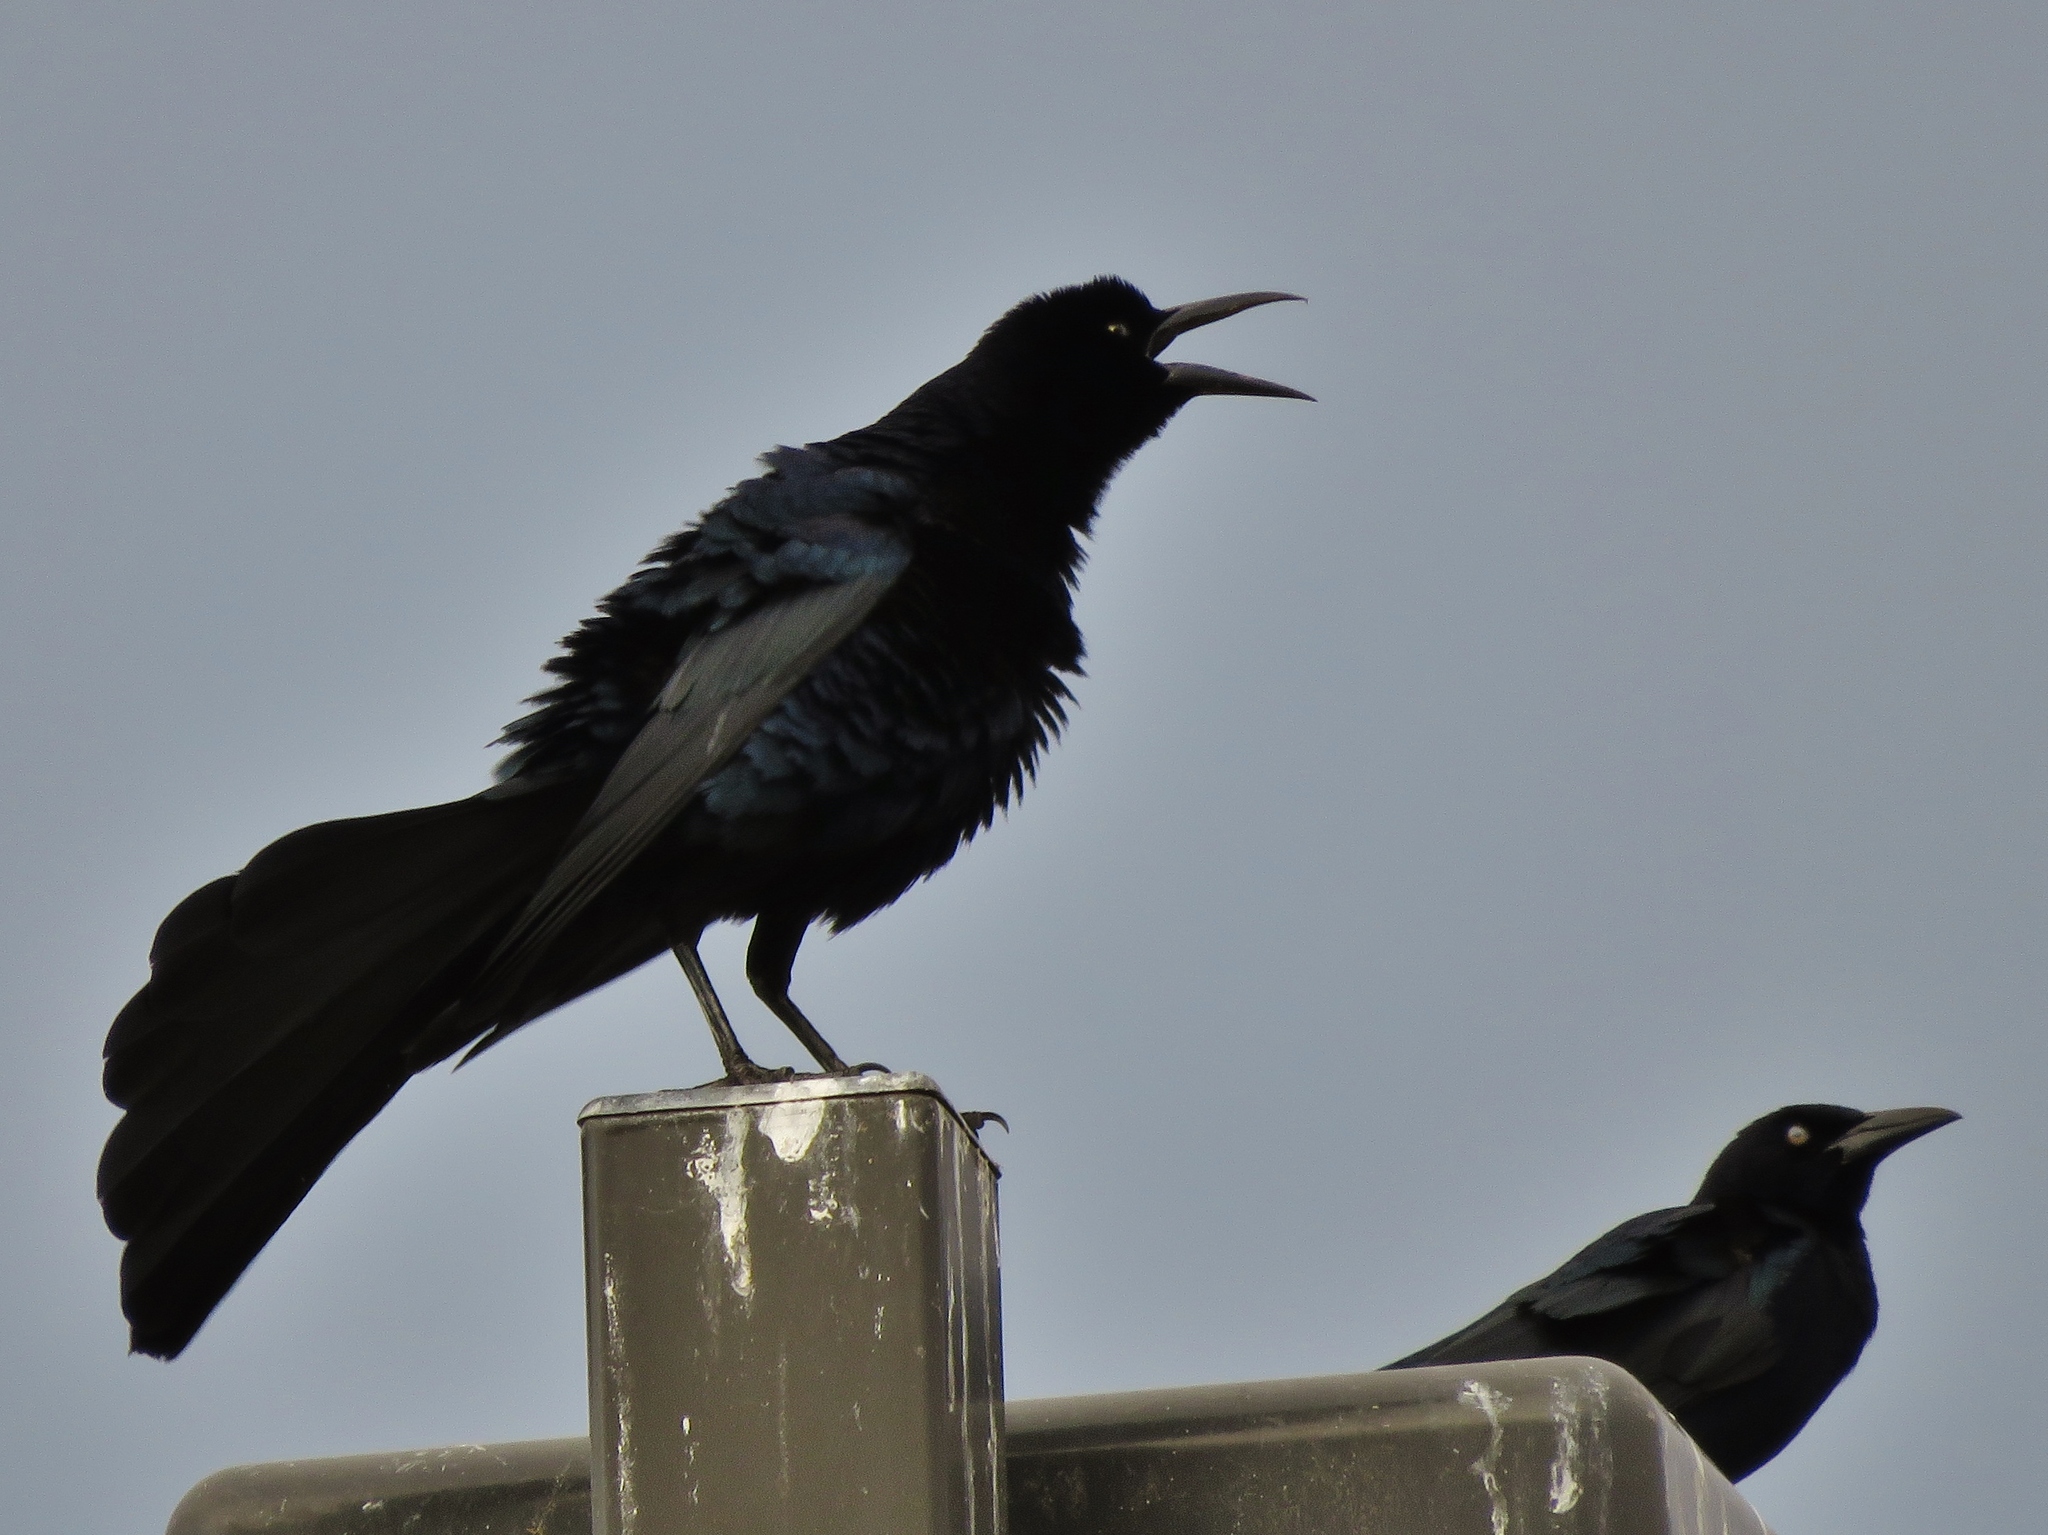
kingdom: Animalia
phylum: Chordata
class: Aves
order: Passeriformes
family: Icteridae
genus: Quiscalus
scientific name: Quiscalus mexicanus
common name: Great-tailed grackle
